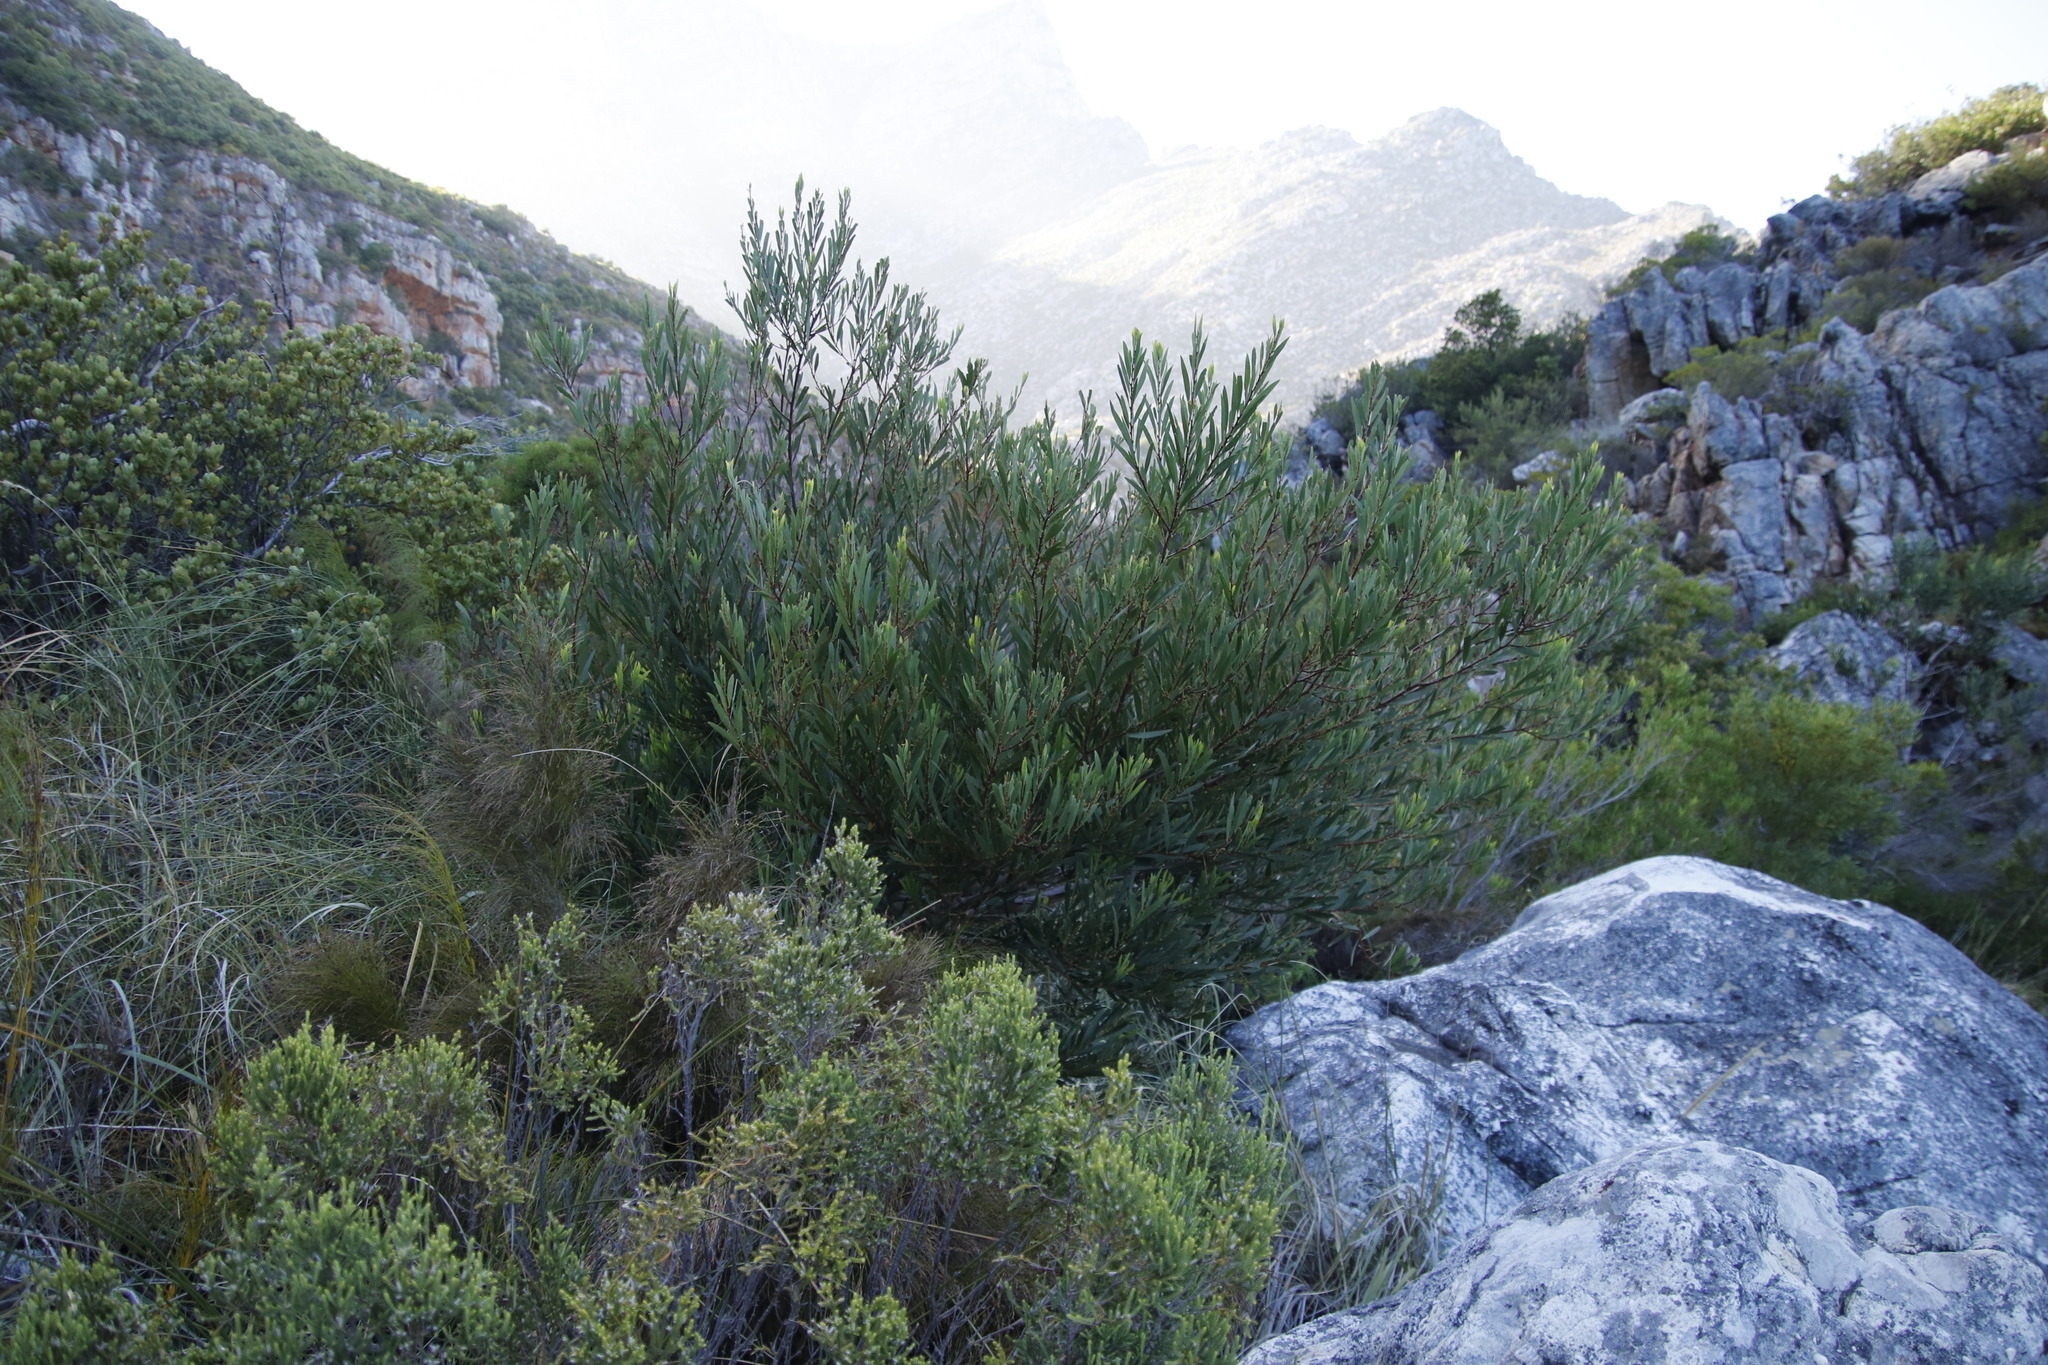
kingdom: Plantae
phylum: Tracheophyta
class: Magnoliopsida
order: Fabales
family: Fabaceae
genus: Acacia
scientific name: Acacia longifolia
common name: Sydney golden wattle
